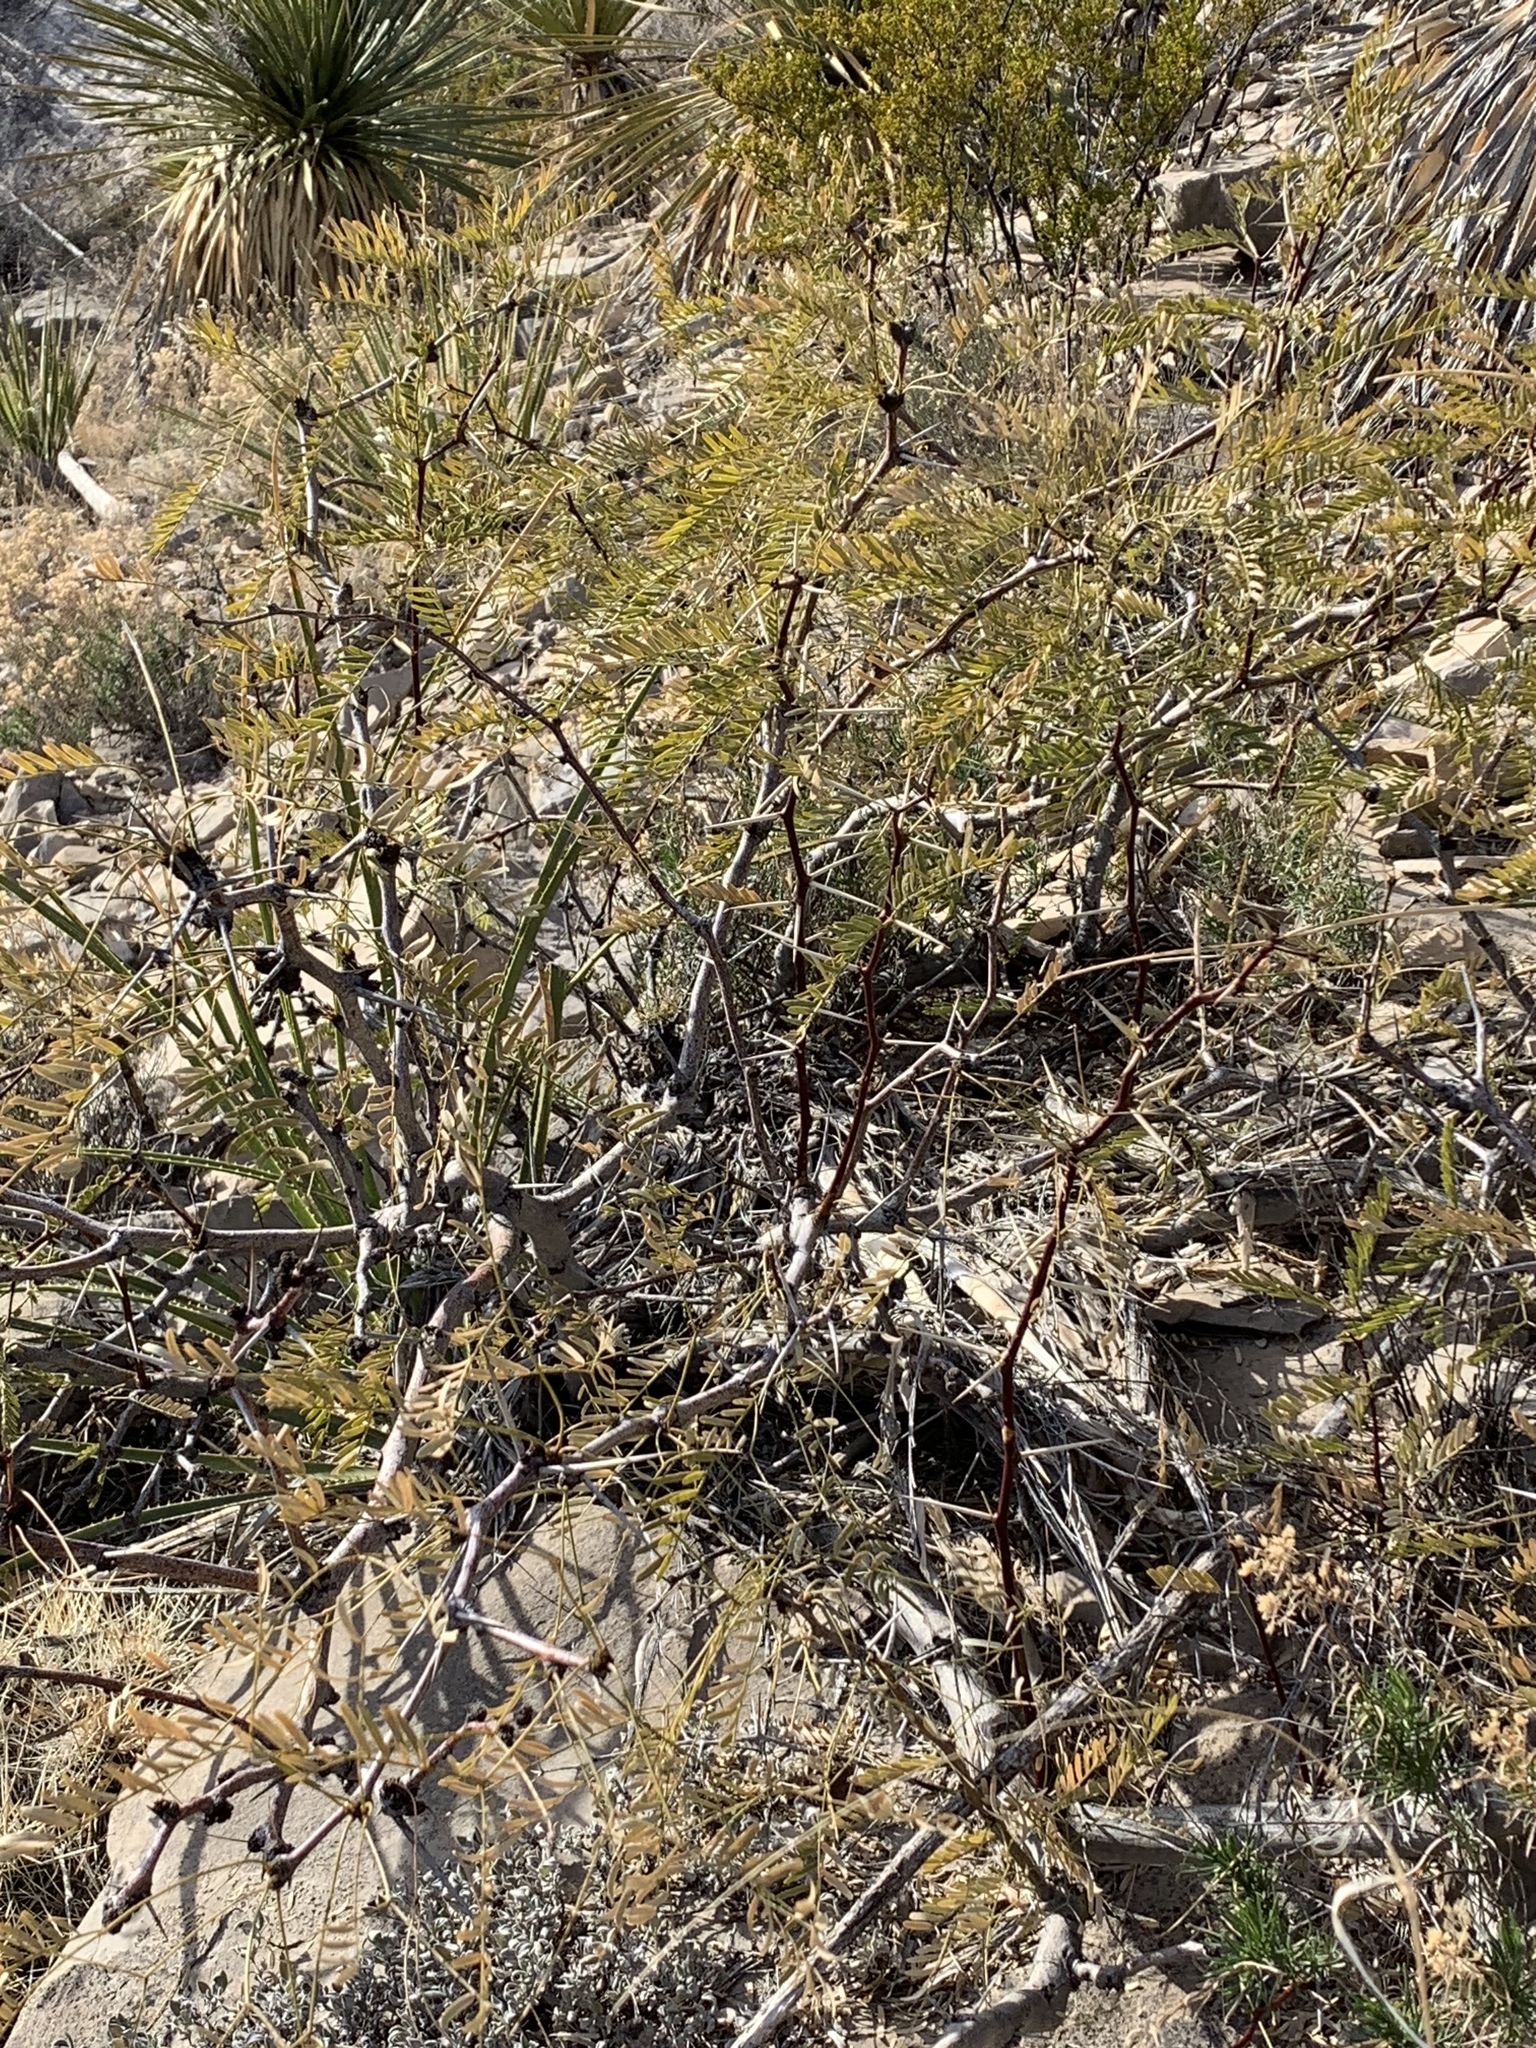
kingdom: Plantae
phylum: Tracheophyta
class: Magnoliopsida
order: Fabales
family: Fabaceae
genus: Prosopis
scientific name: Prosopis glandulosa
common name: Honey mesquite
